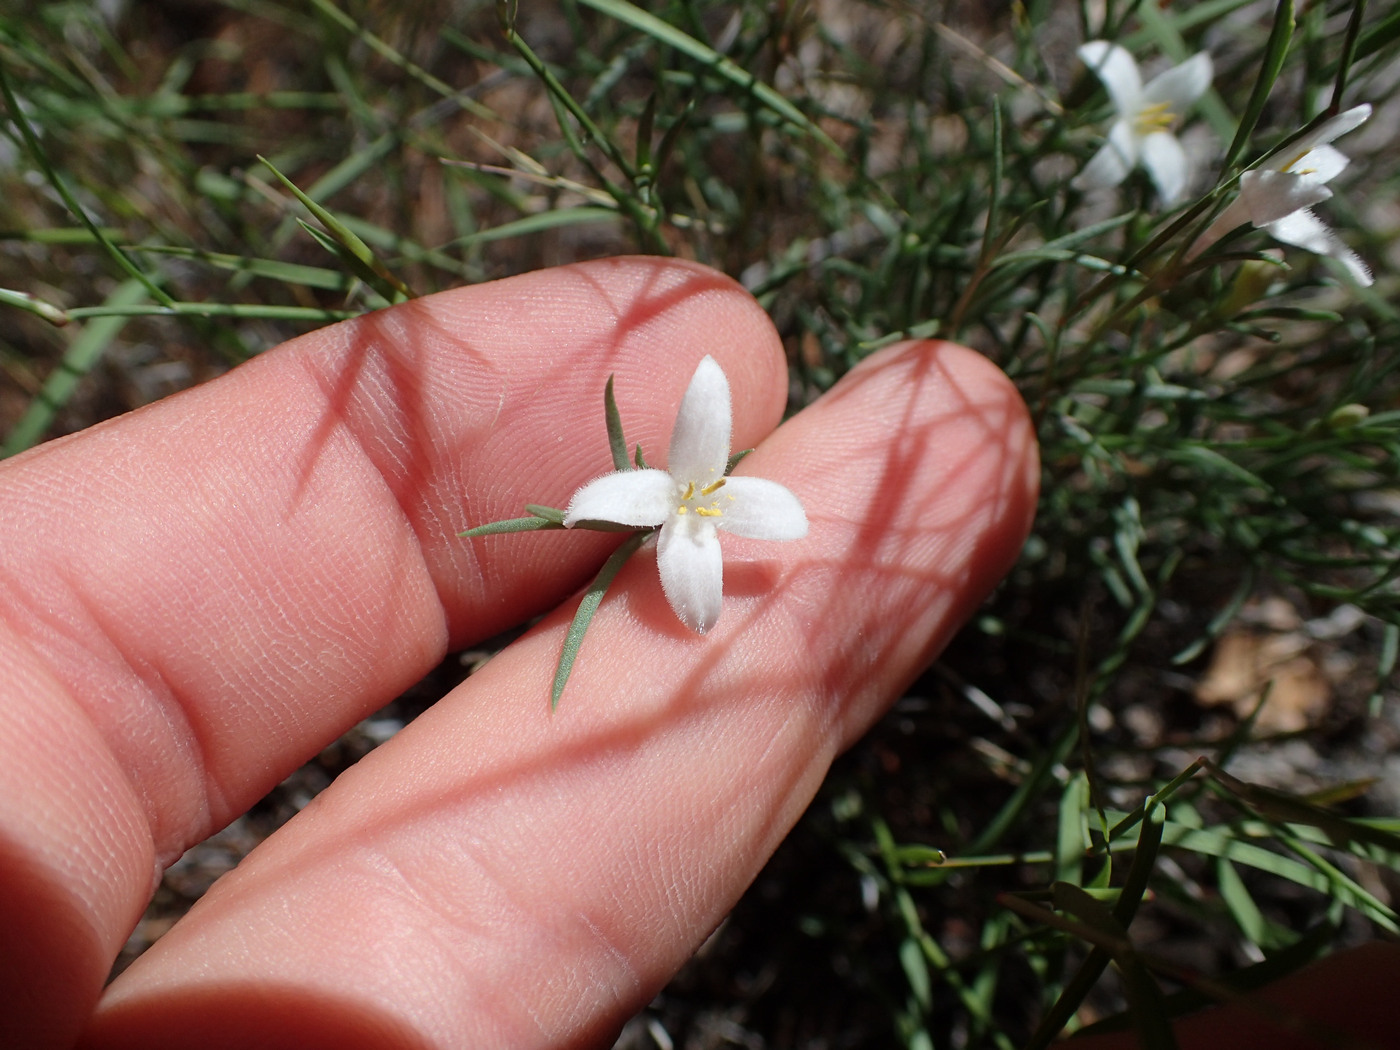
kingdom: Plantae
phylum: Tracheophyta
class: Magnoliopsida
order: Gentianales
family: Rubiaceae
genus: Houstonia
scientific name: Houstonia acerosa
